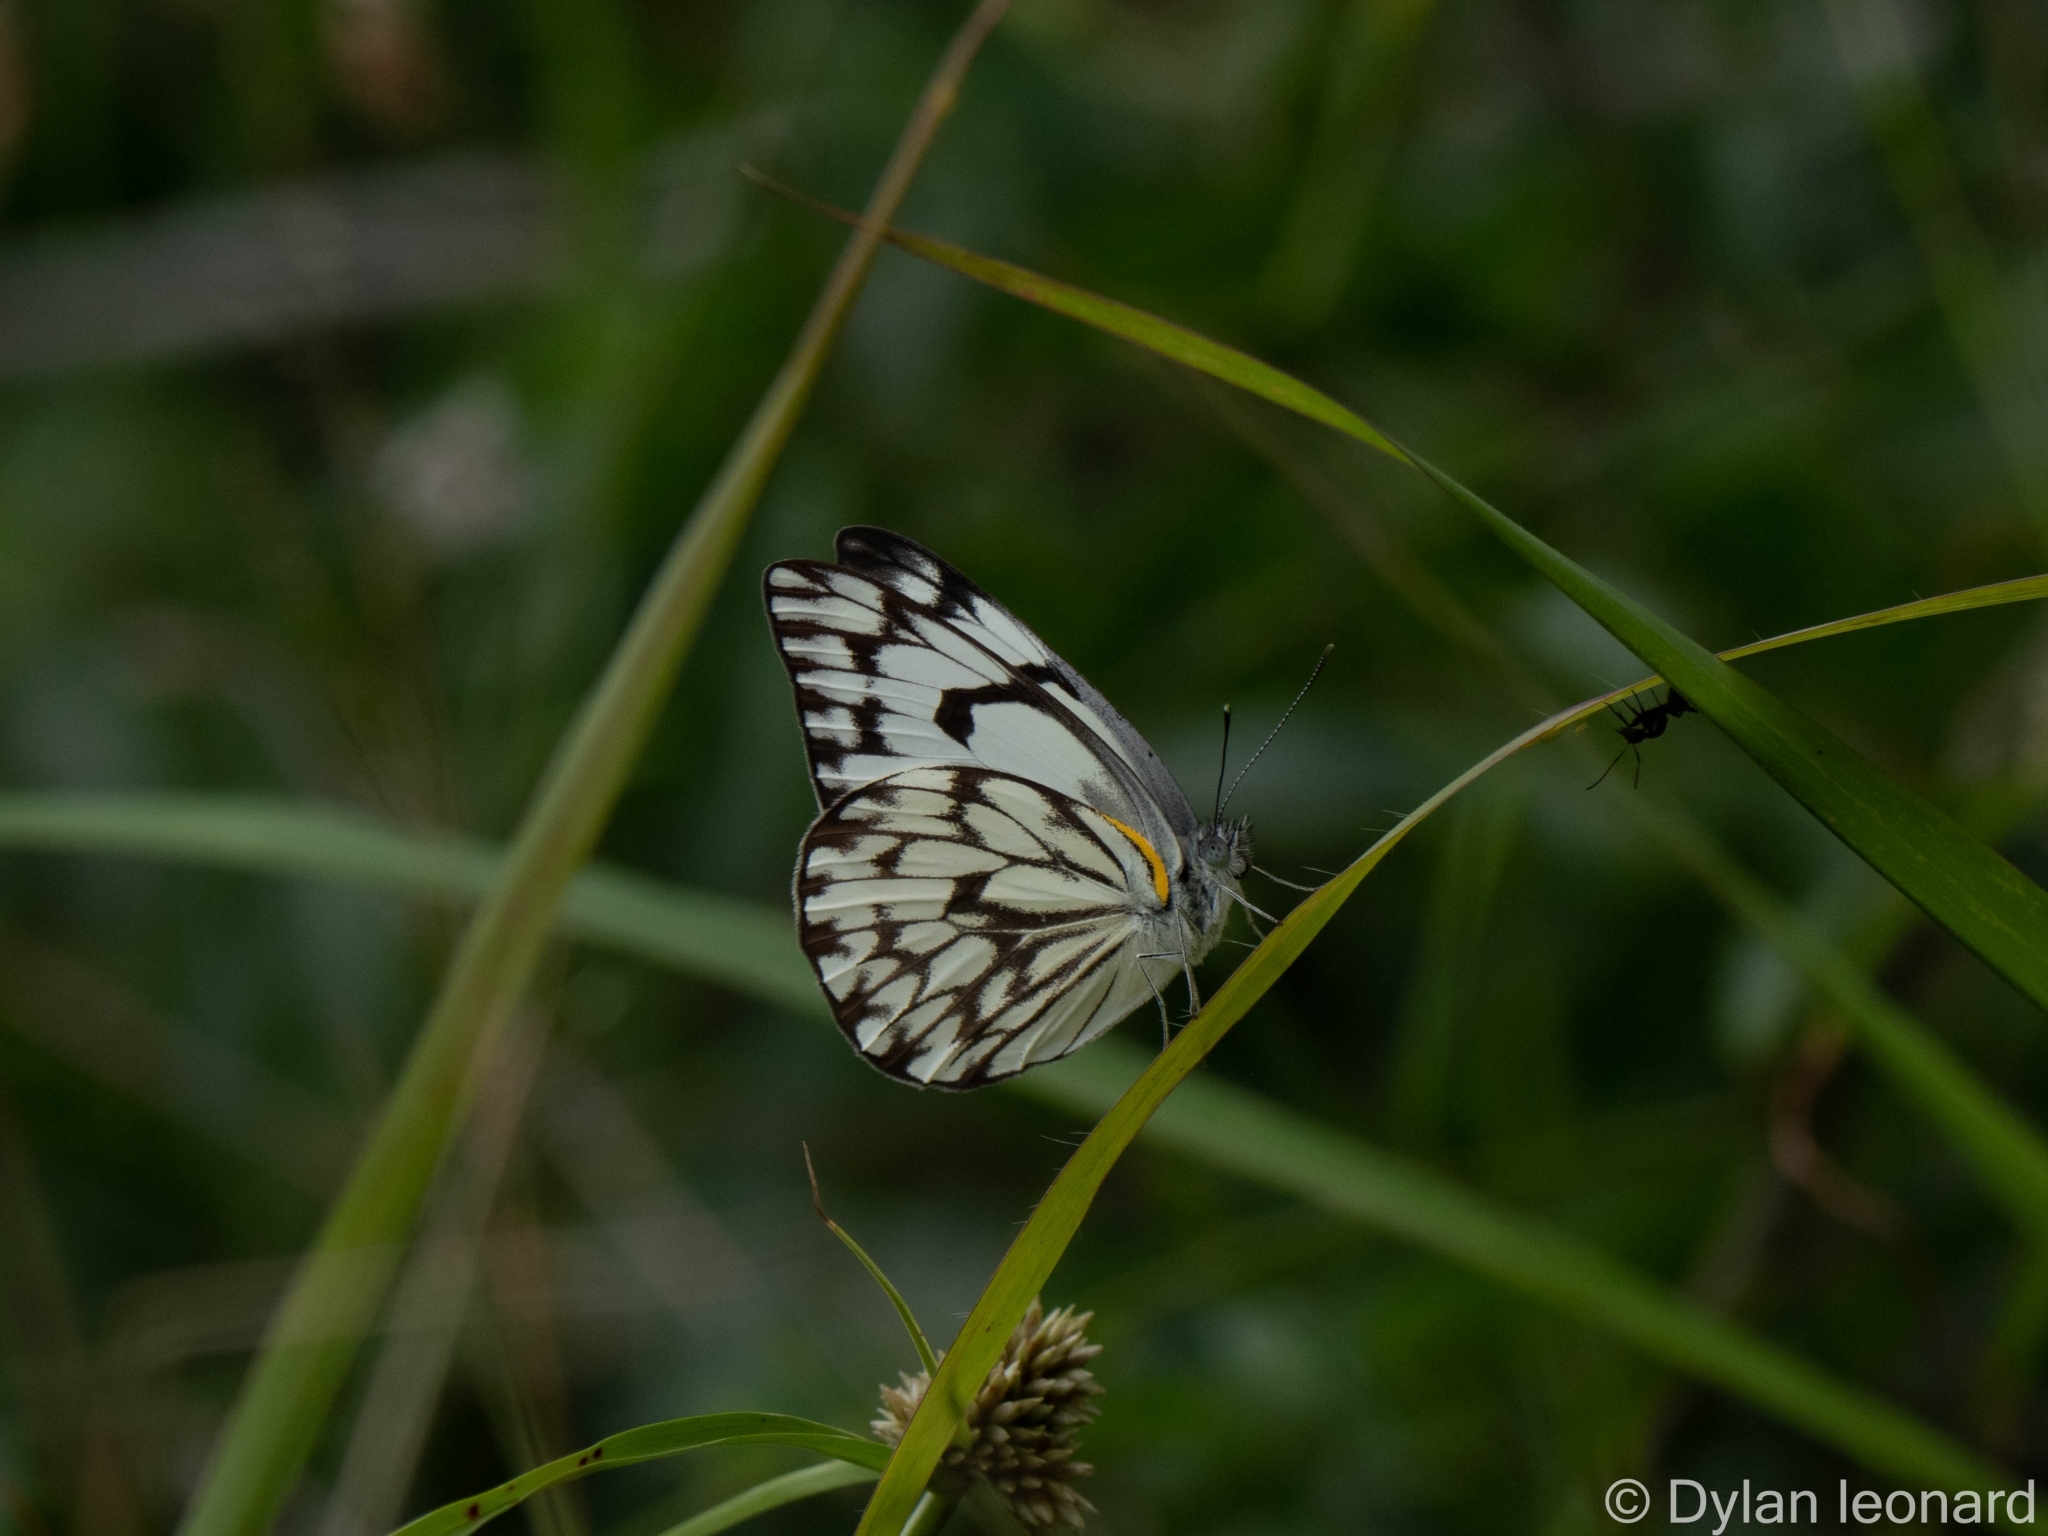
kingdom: Animalia
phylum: Arthropoda
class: Insecta
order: Lepidoptera
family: Pieridae
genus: Belenois
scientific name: Belenois gidica
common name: Pointed caper white
